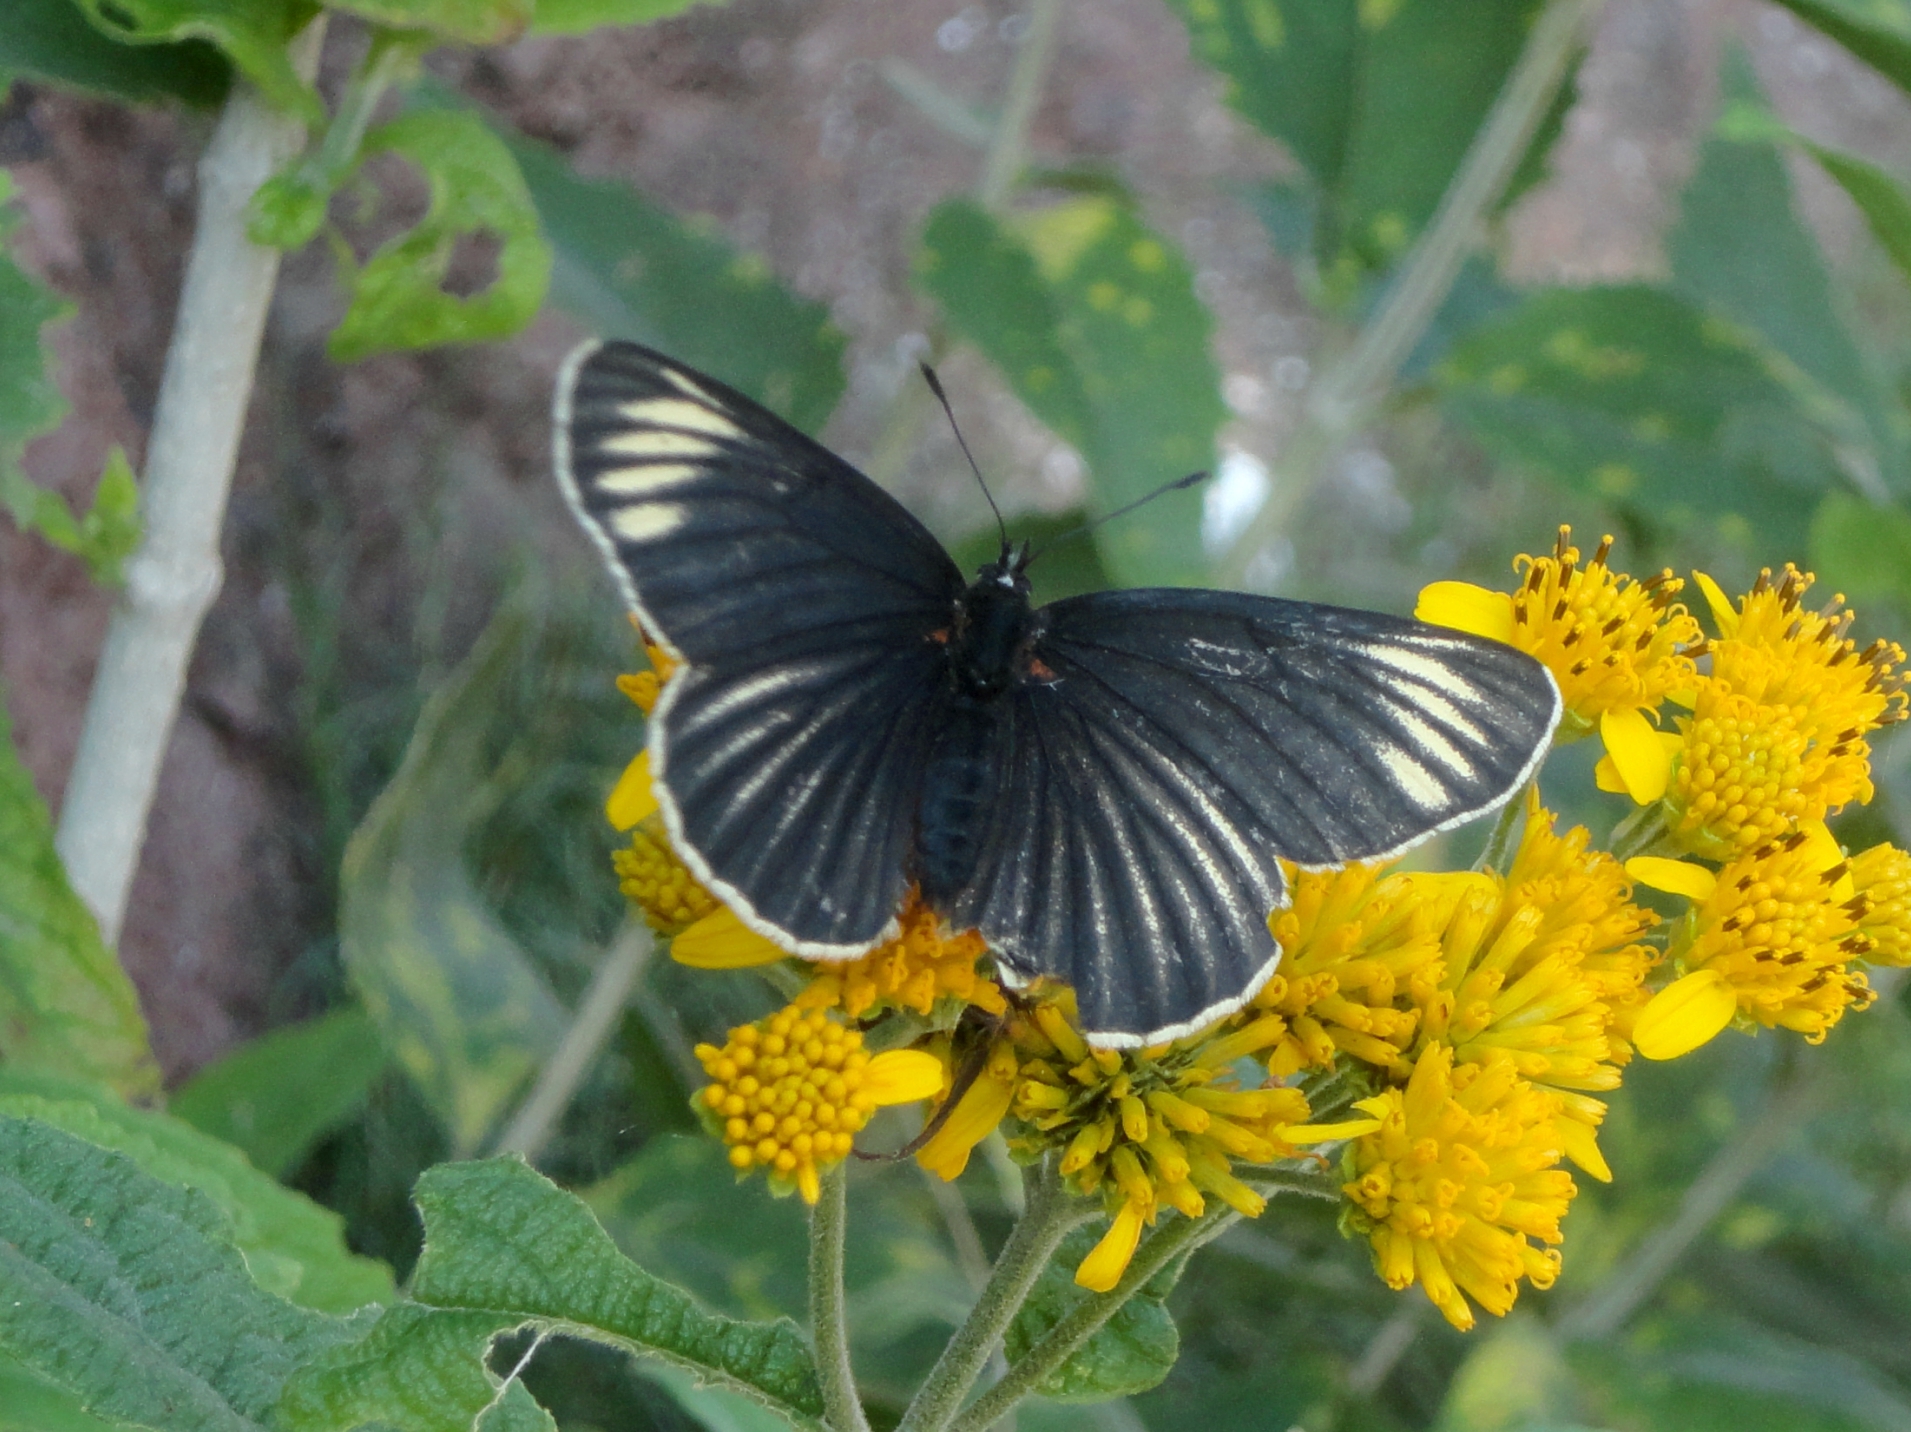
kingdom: Animalia
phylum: Arthropoda
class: Insecta
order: Lepidoptera
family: Nymphalidae
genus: Chlosyne
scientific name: Chlosyne ehrenbergii
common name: White-rayed patch
